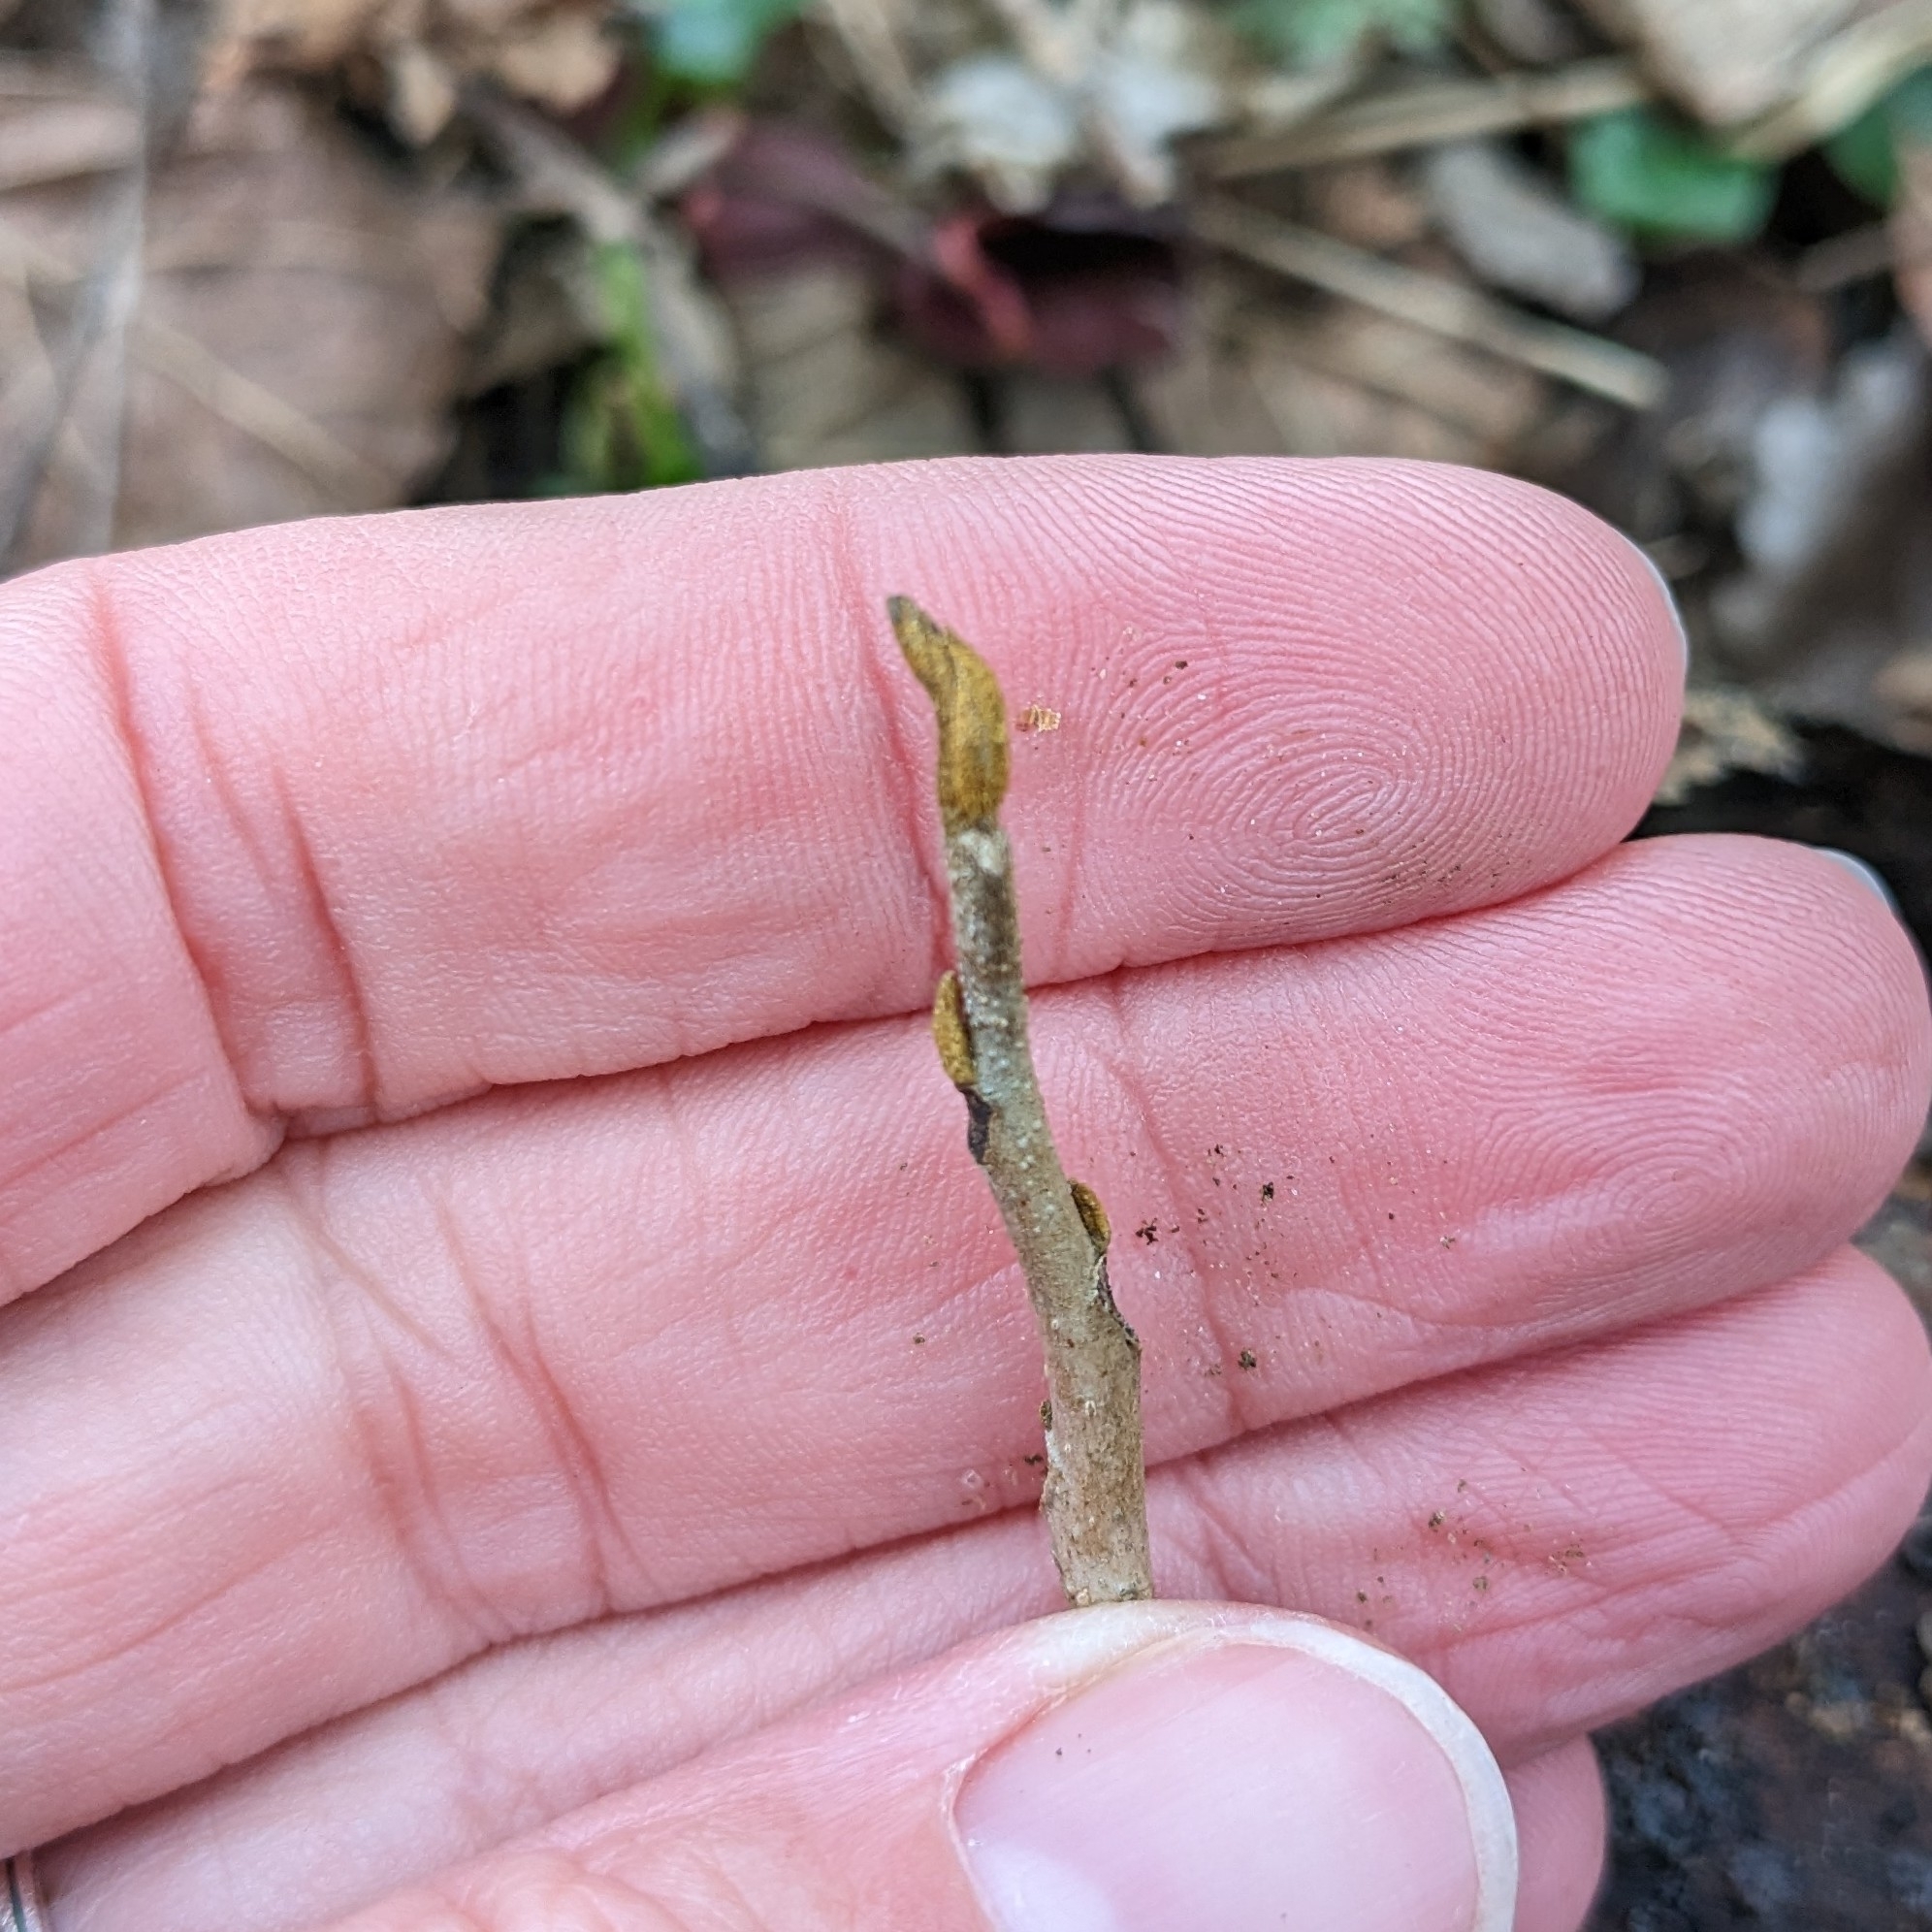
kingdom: Plantae
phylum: Tracheophyta
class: Magnoliopsida
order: Fagales
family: Juglandaceae
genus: Carya
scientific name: Carya cordiformis
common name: Bitternut hickory
